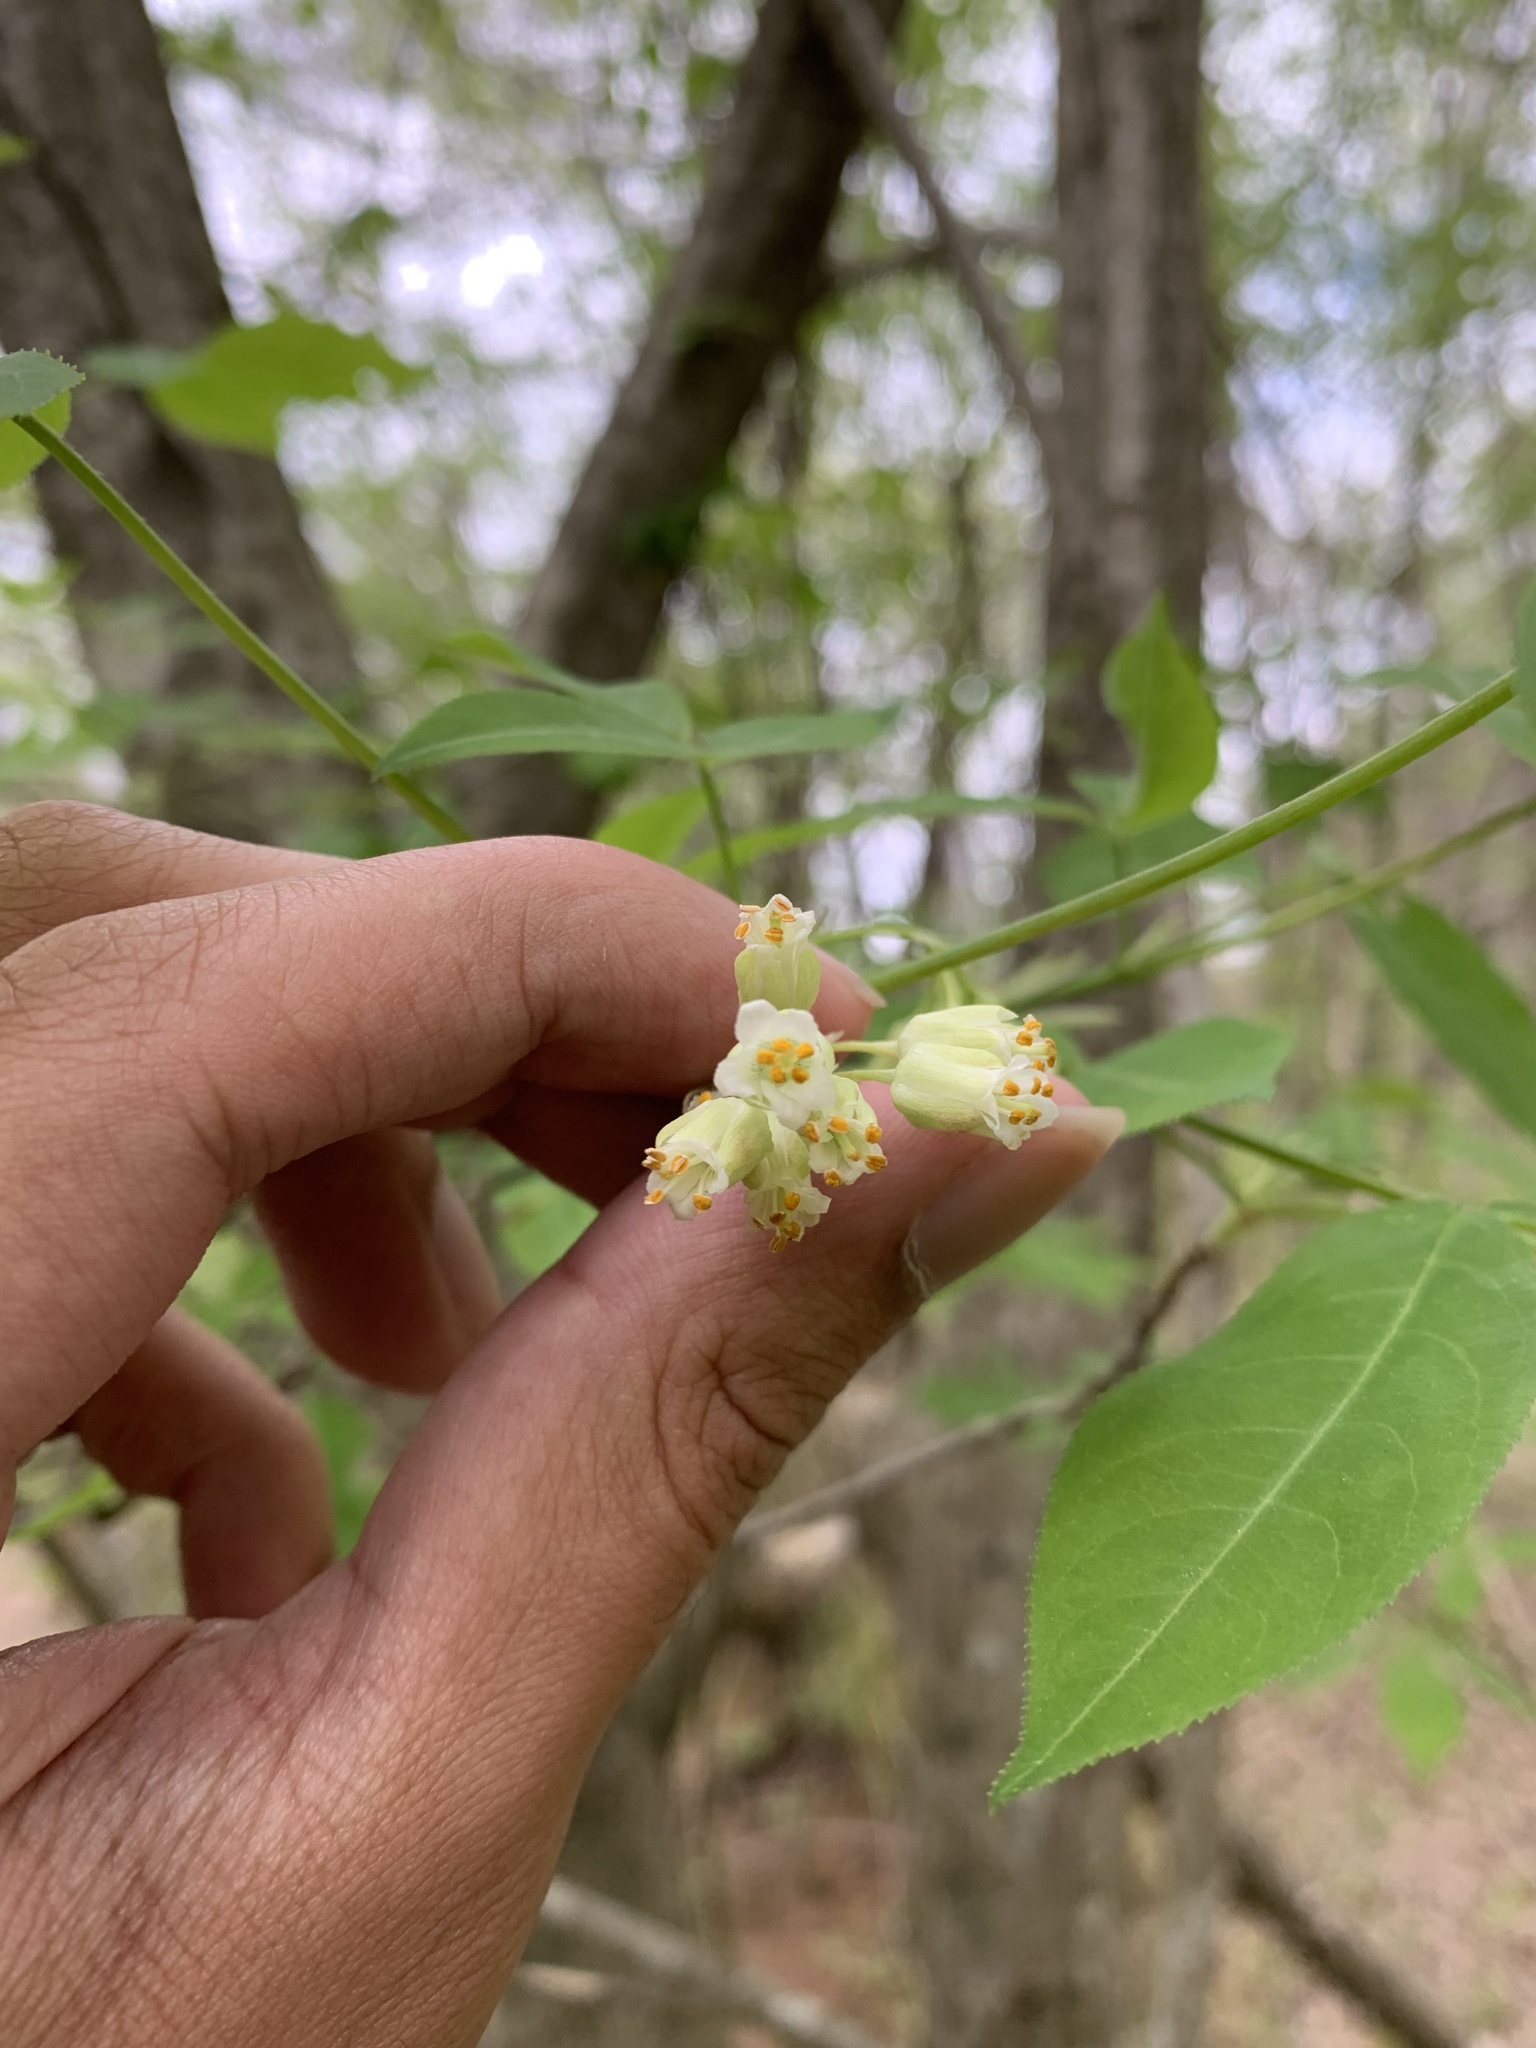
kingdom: Plantae
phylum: Tracheophyta
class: Magnoliopsida
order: Crossosomatales
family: Staphyleaceae
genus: Staphylea
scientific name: Staphylea trifolia
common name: American bladdernut
